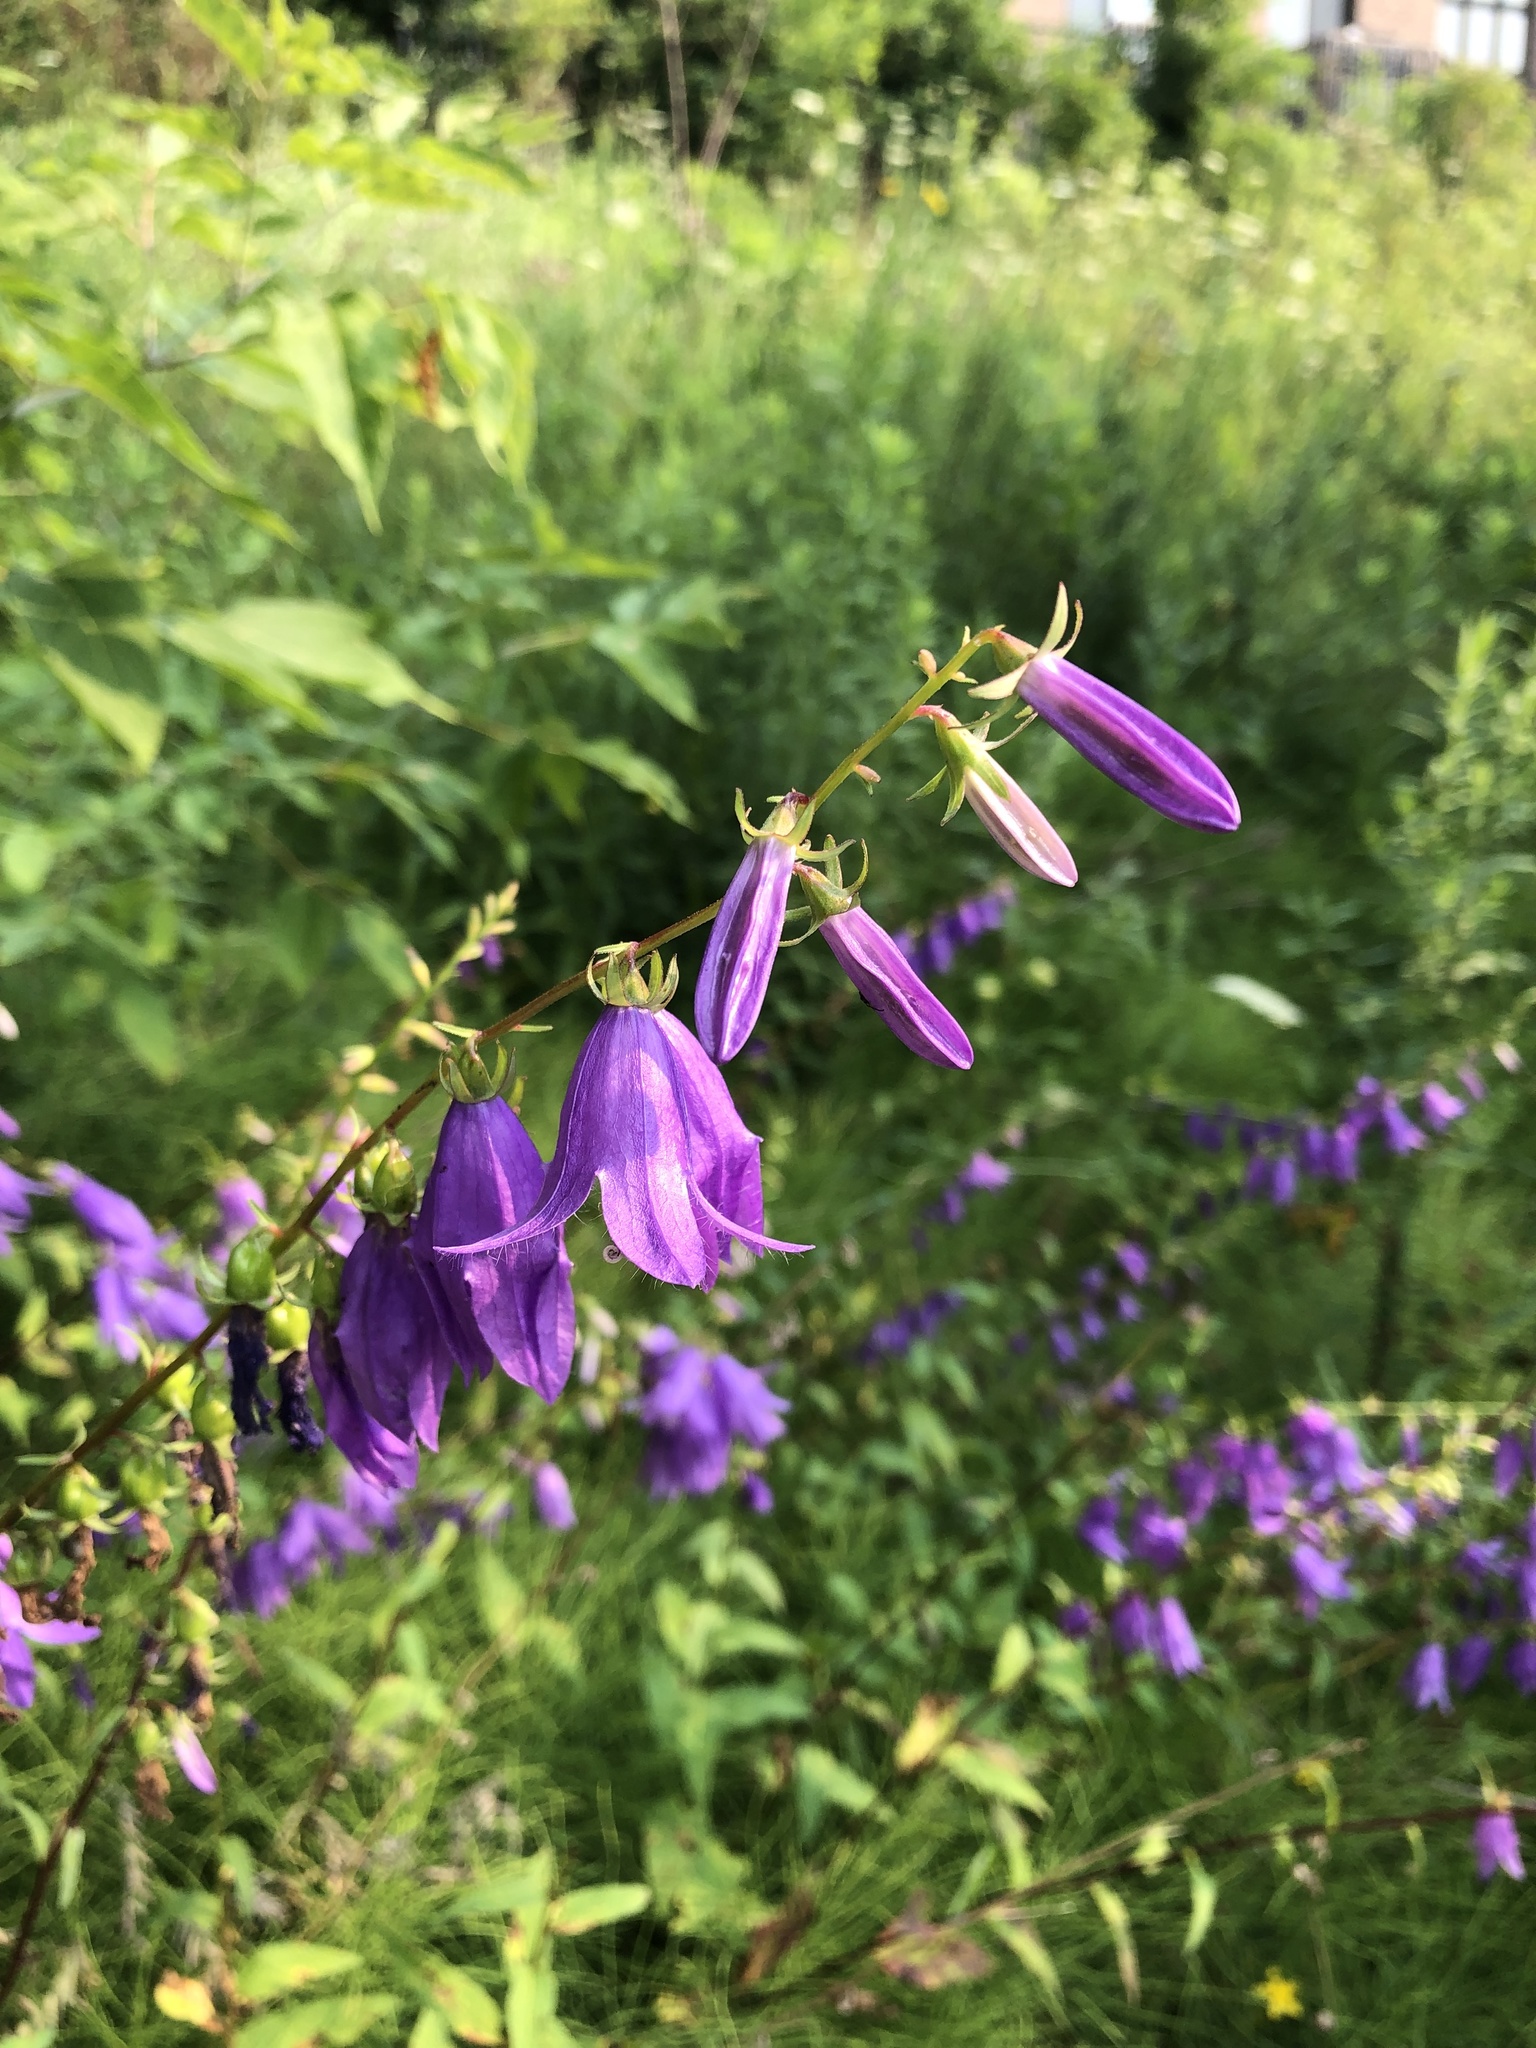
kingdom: Plantae
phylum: Tracheophyta
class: Magnoliopsida
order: Asterales
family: Campanulaceae
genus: Campanula
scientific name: Campanula rapunculoides
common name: Creeping bellflower
